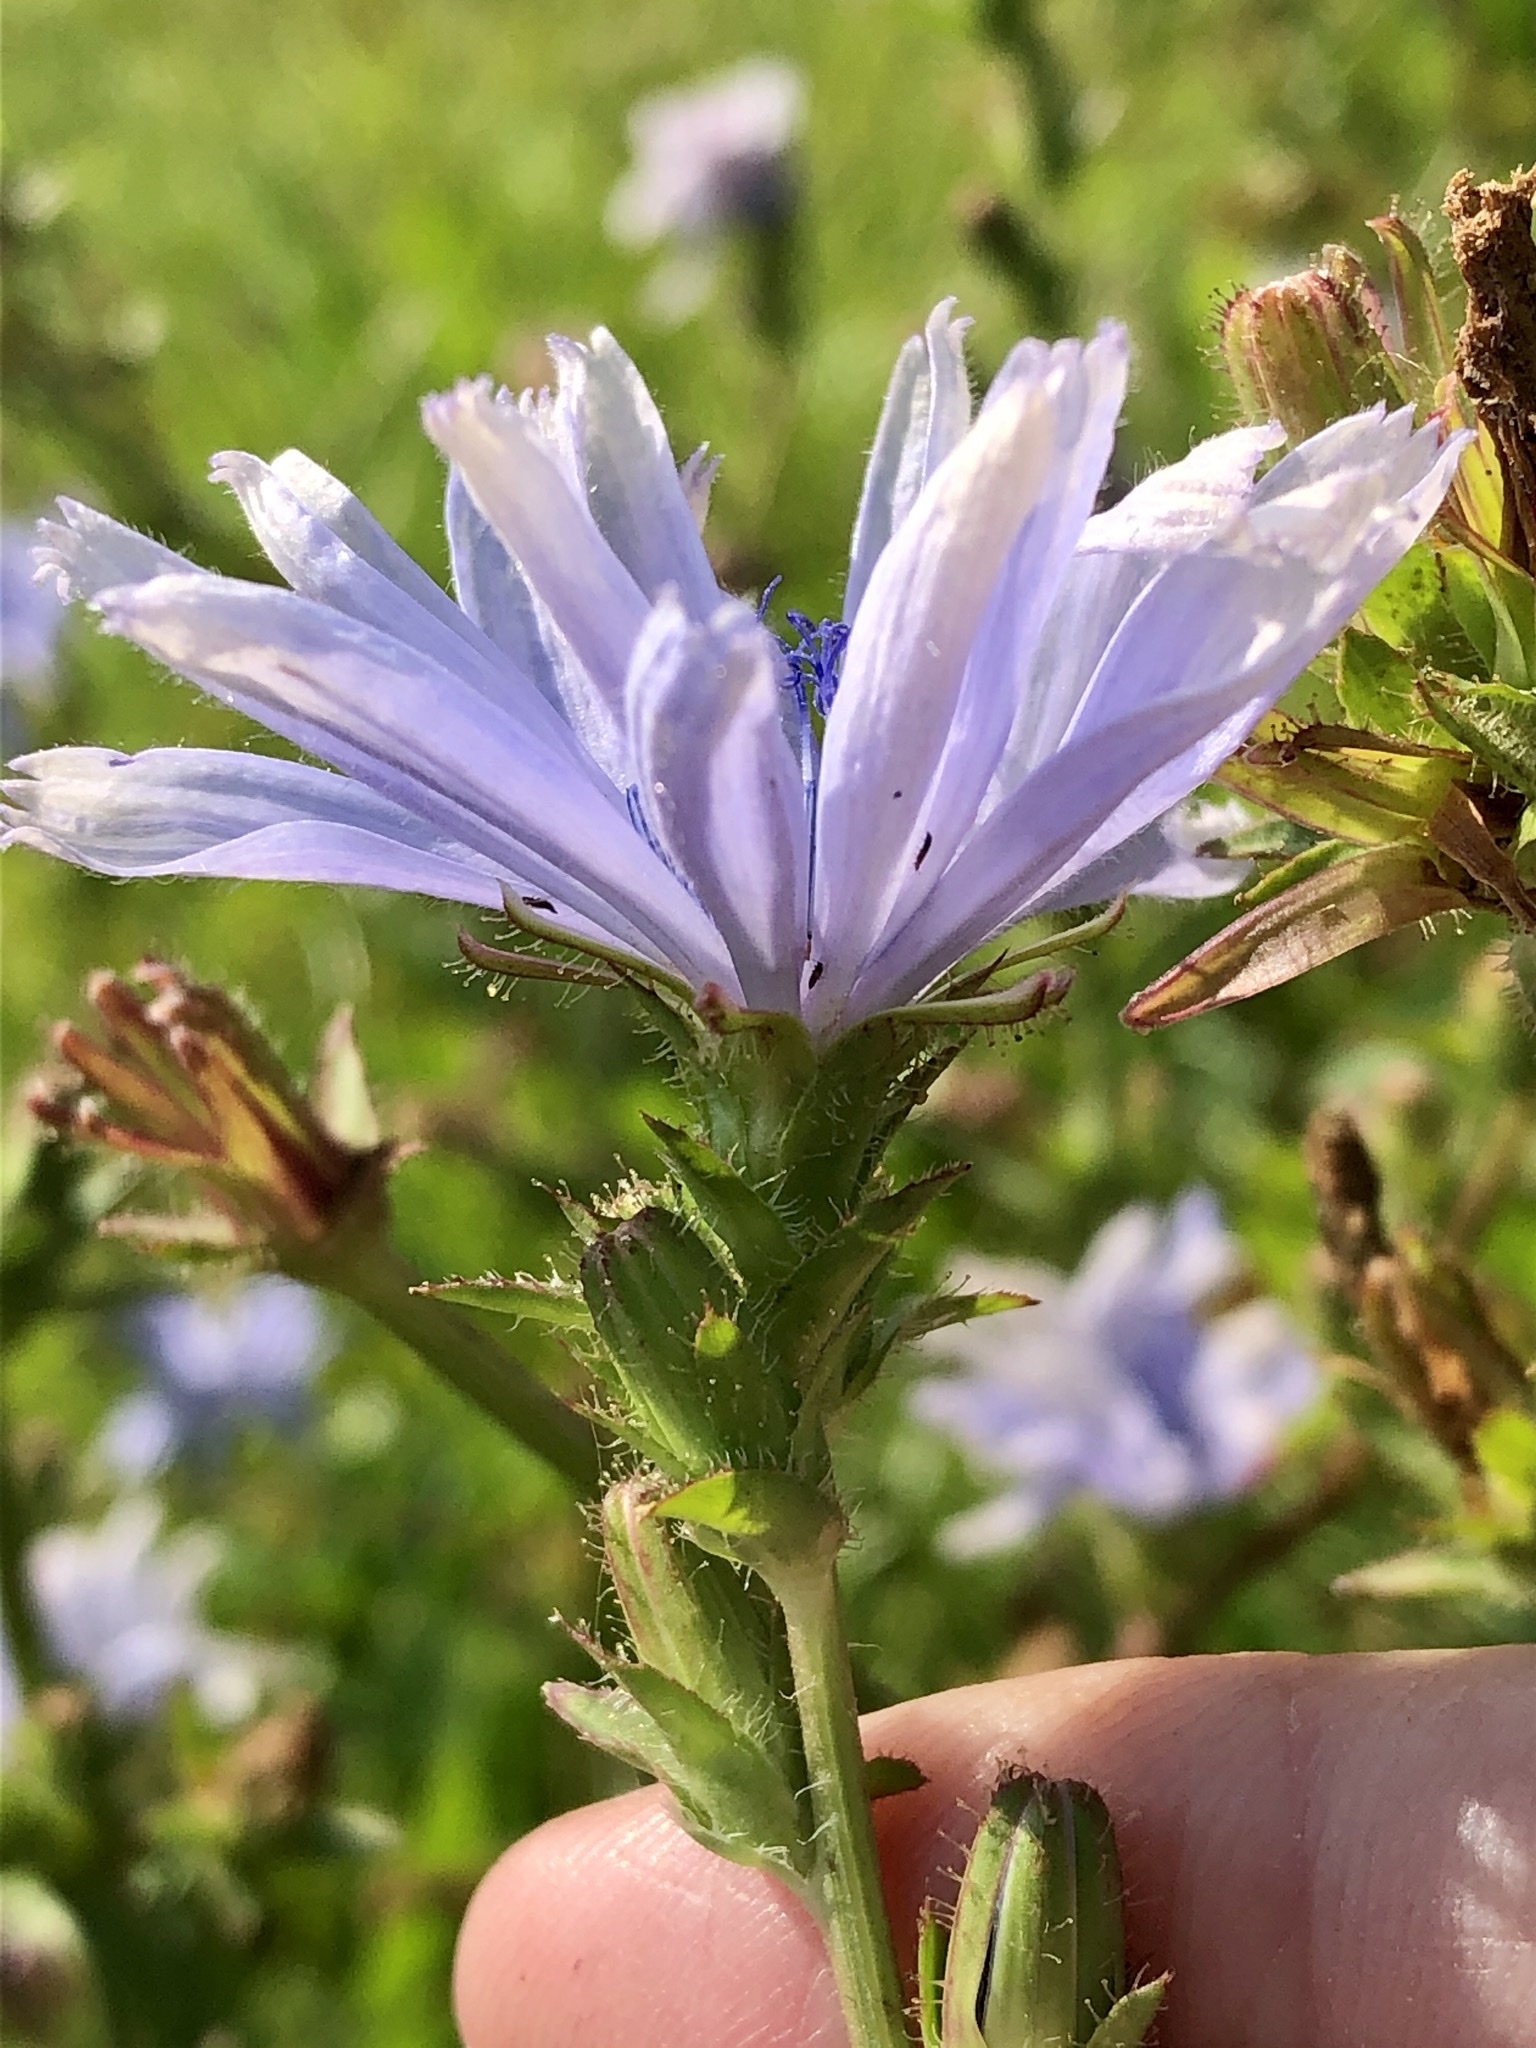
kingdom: Plantae
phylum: Tracheophyta
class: Magnoliopsida
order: Asterales
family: Asteraceae
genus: Cichorium
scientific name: Cichorium intybus
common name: Chicory
